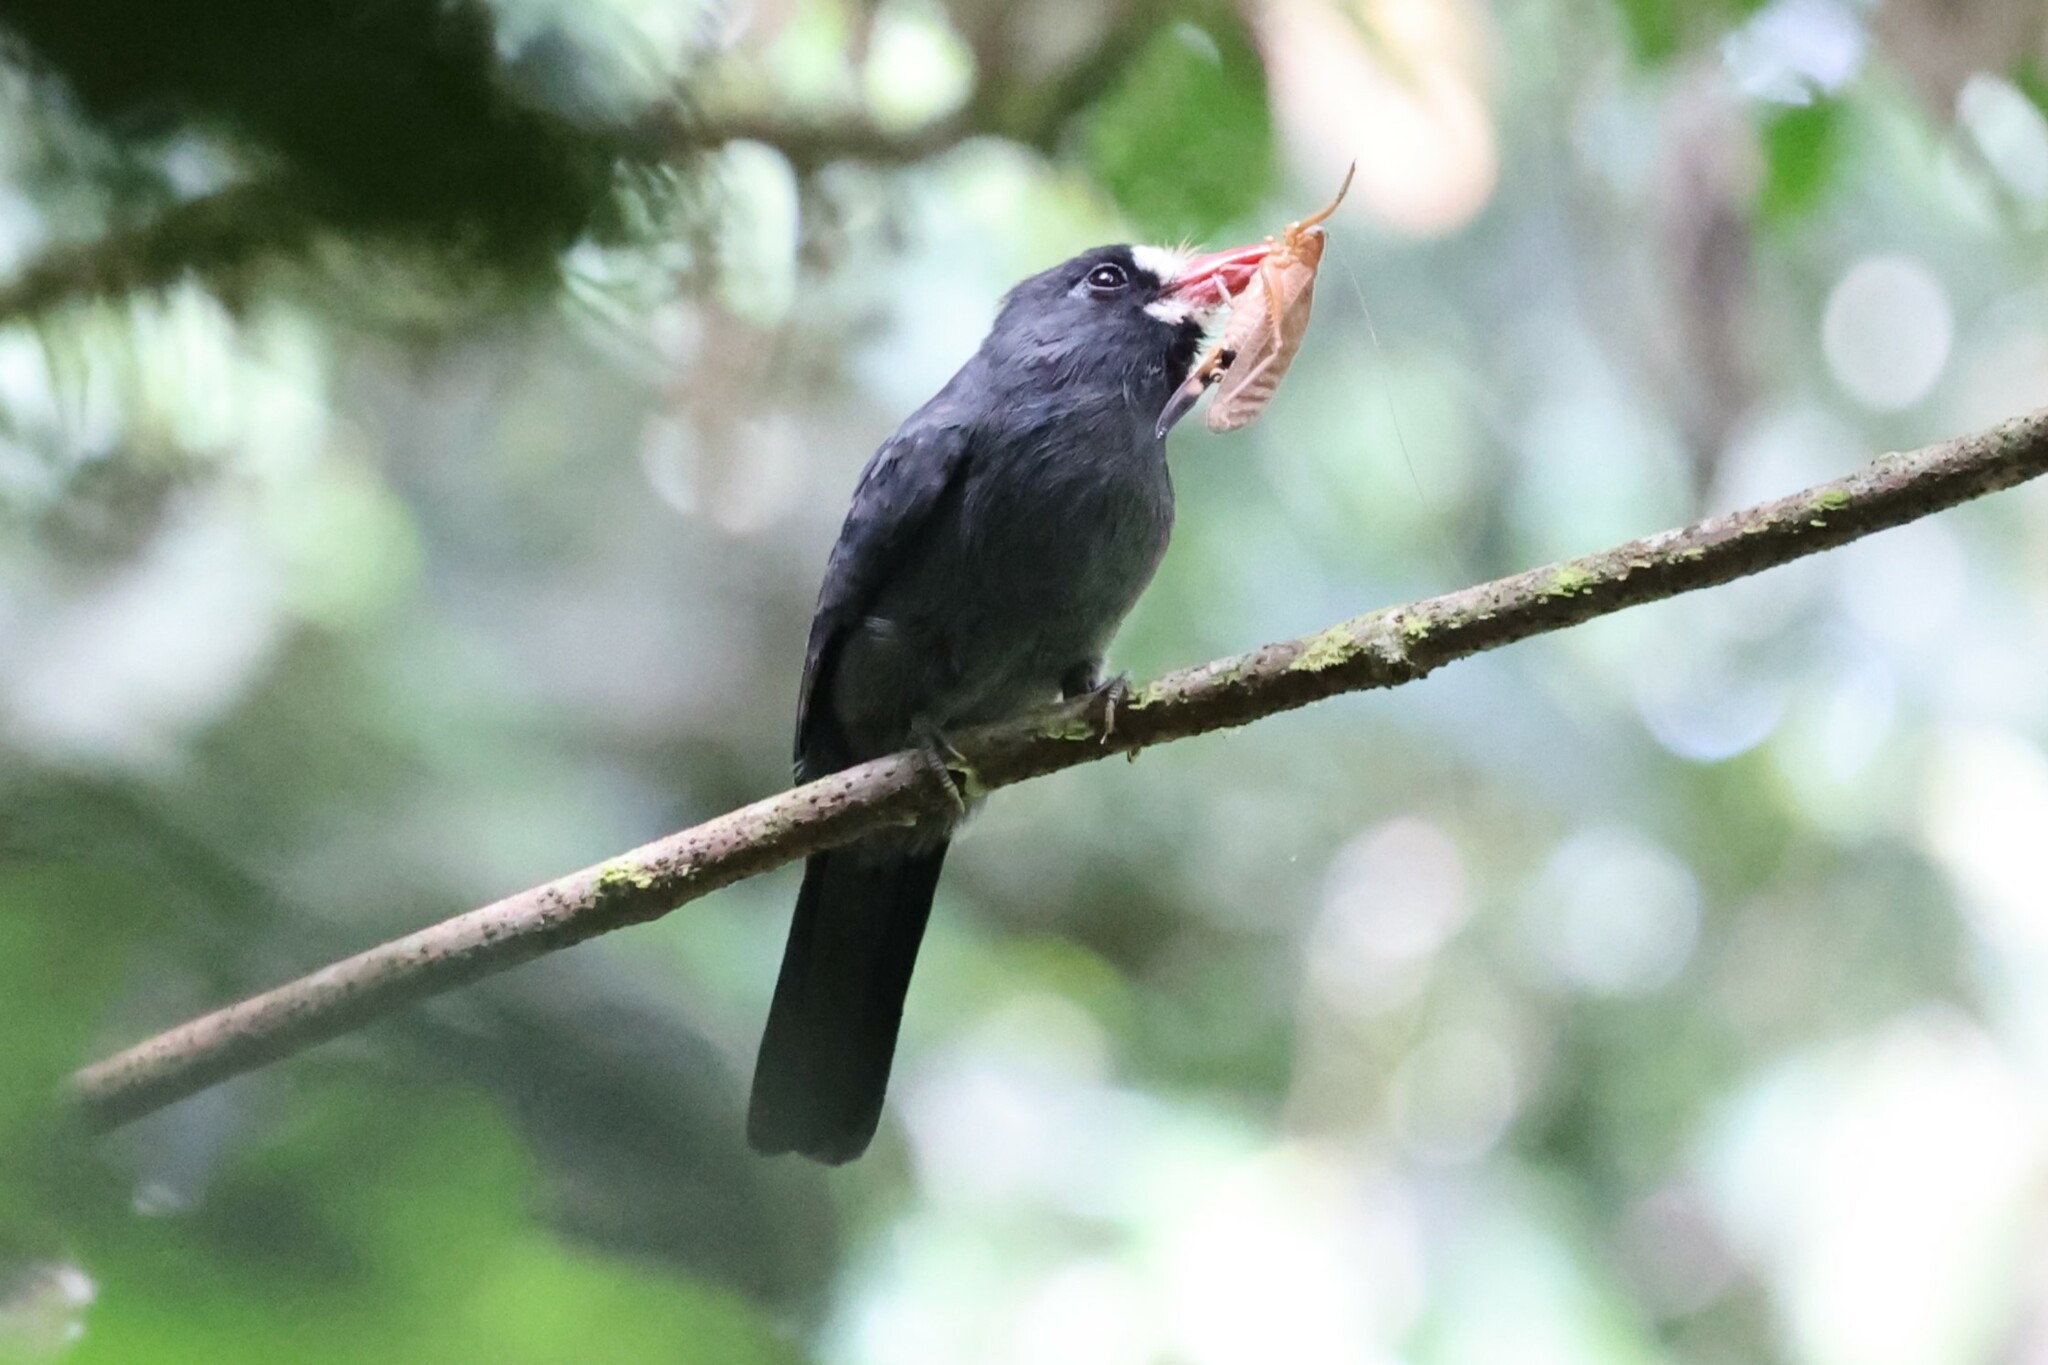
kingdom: Animalia
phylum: Chordata
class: Aves
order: Piciformes
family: Bucconidae
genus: Monasa
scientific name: Monasa morphoeus
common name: White-fronted nunbird
